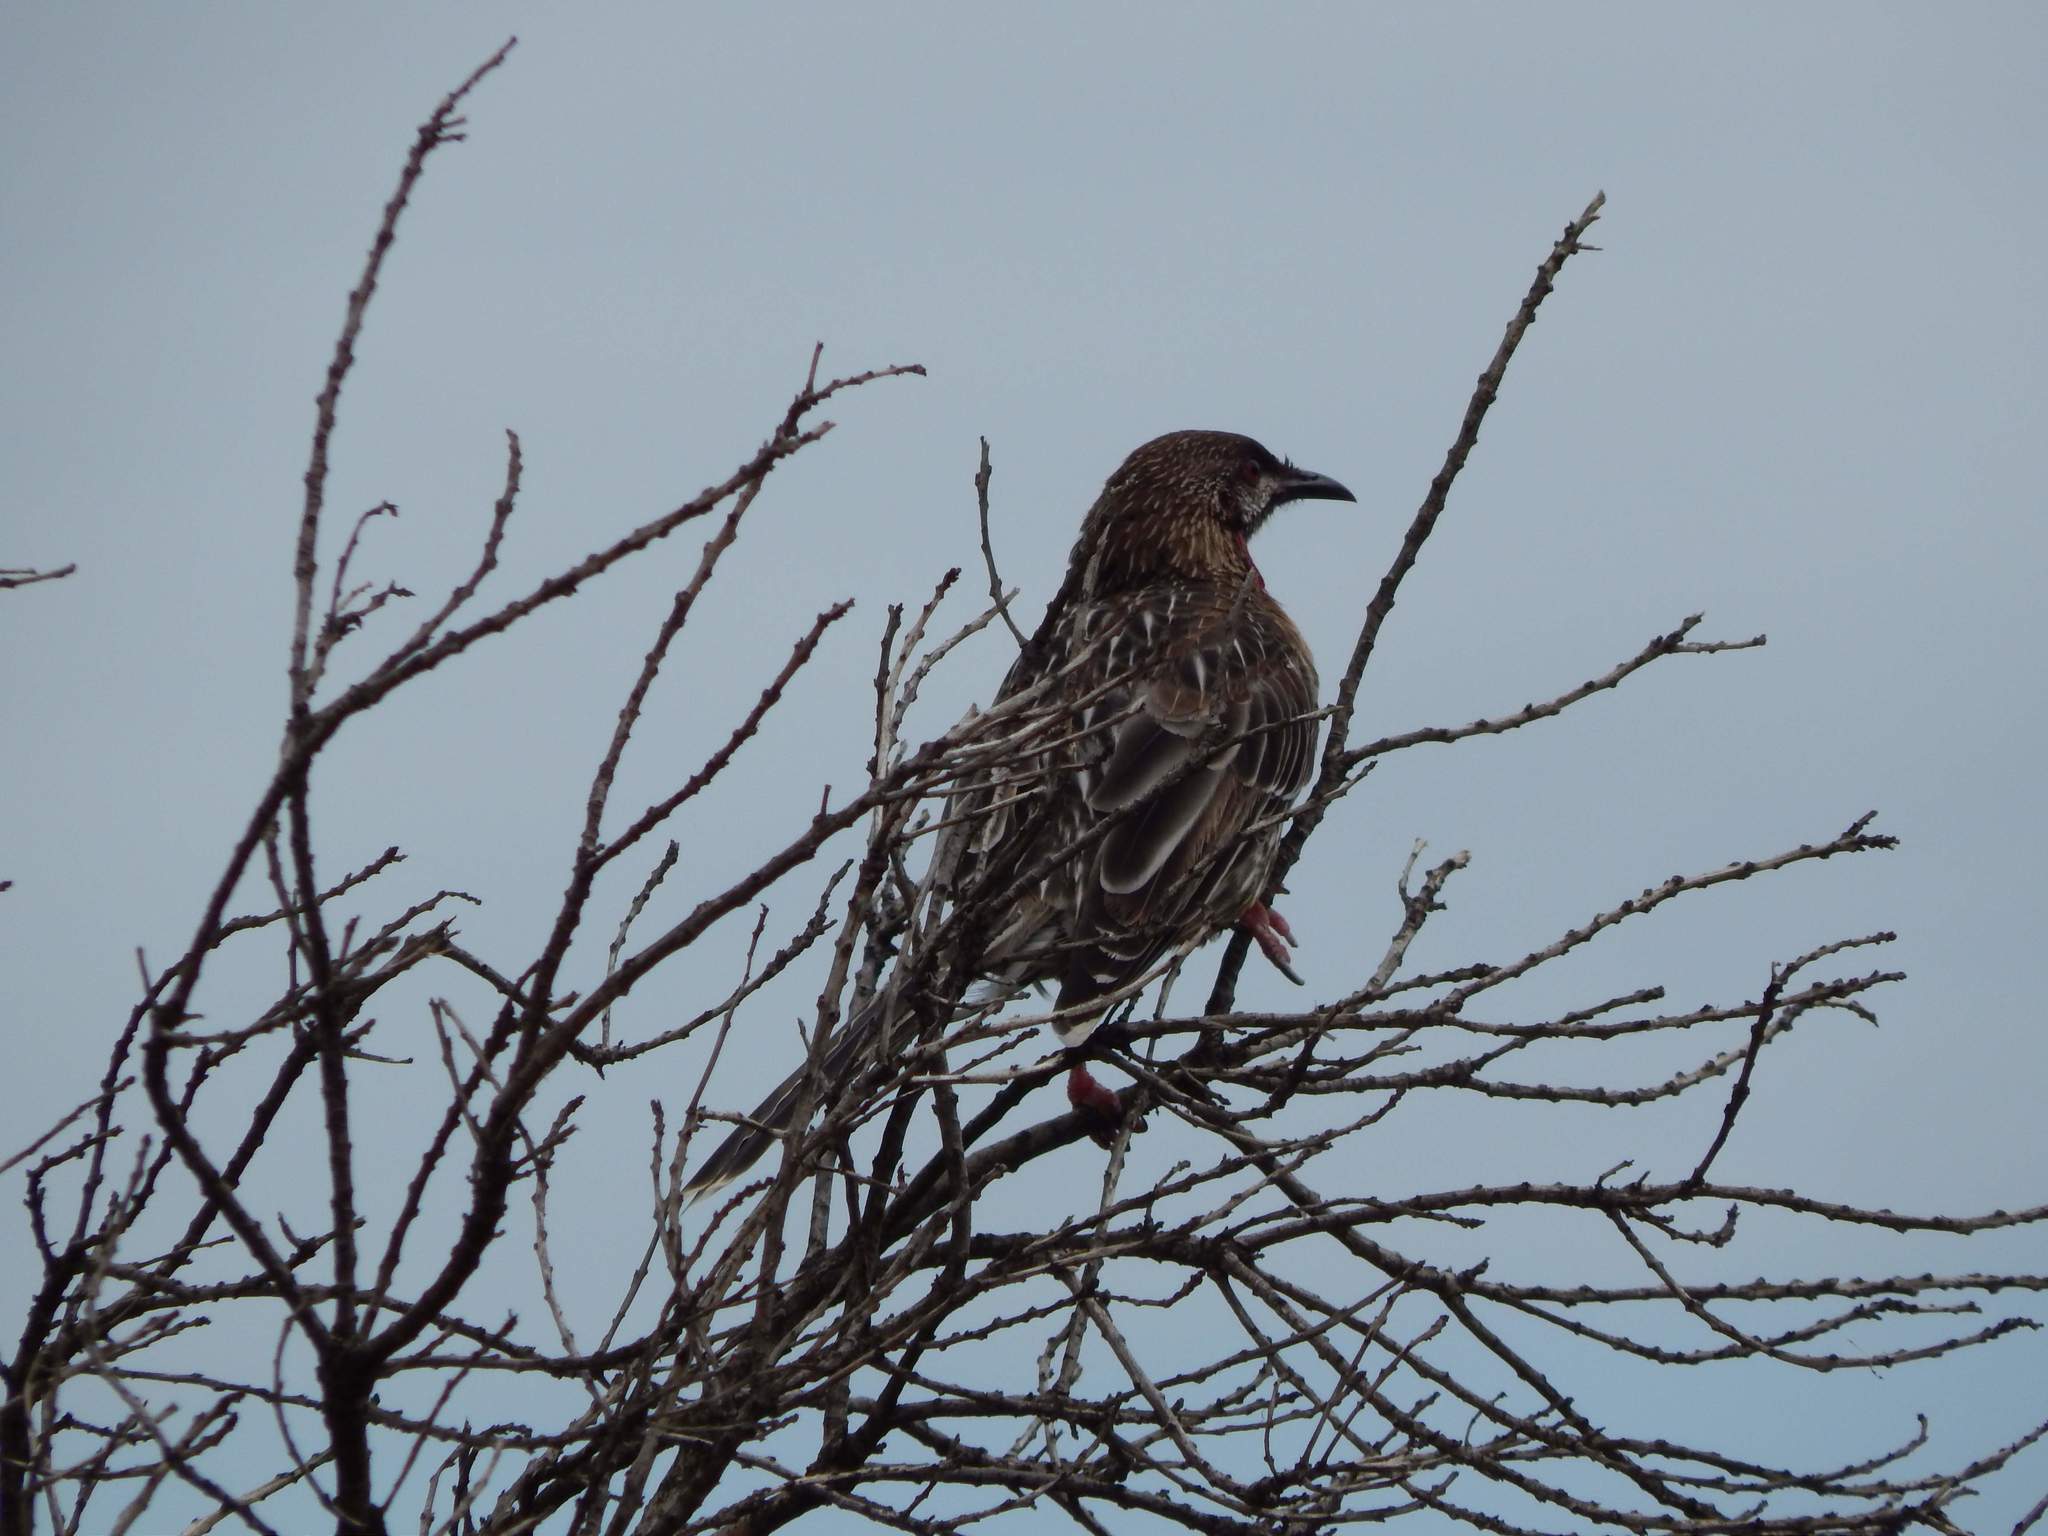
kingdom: Animalia
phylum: Chordata
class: Aves
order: Passeriformes
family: Meliphagidae
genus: Anthochaera
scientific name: Anthochaera carunculata
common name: Red wattlebird
